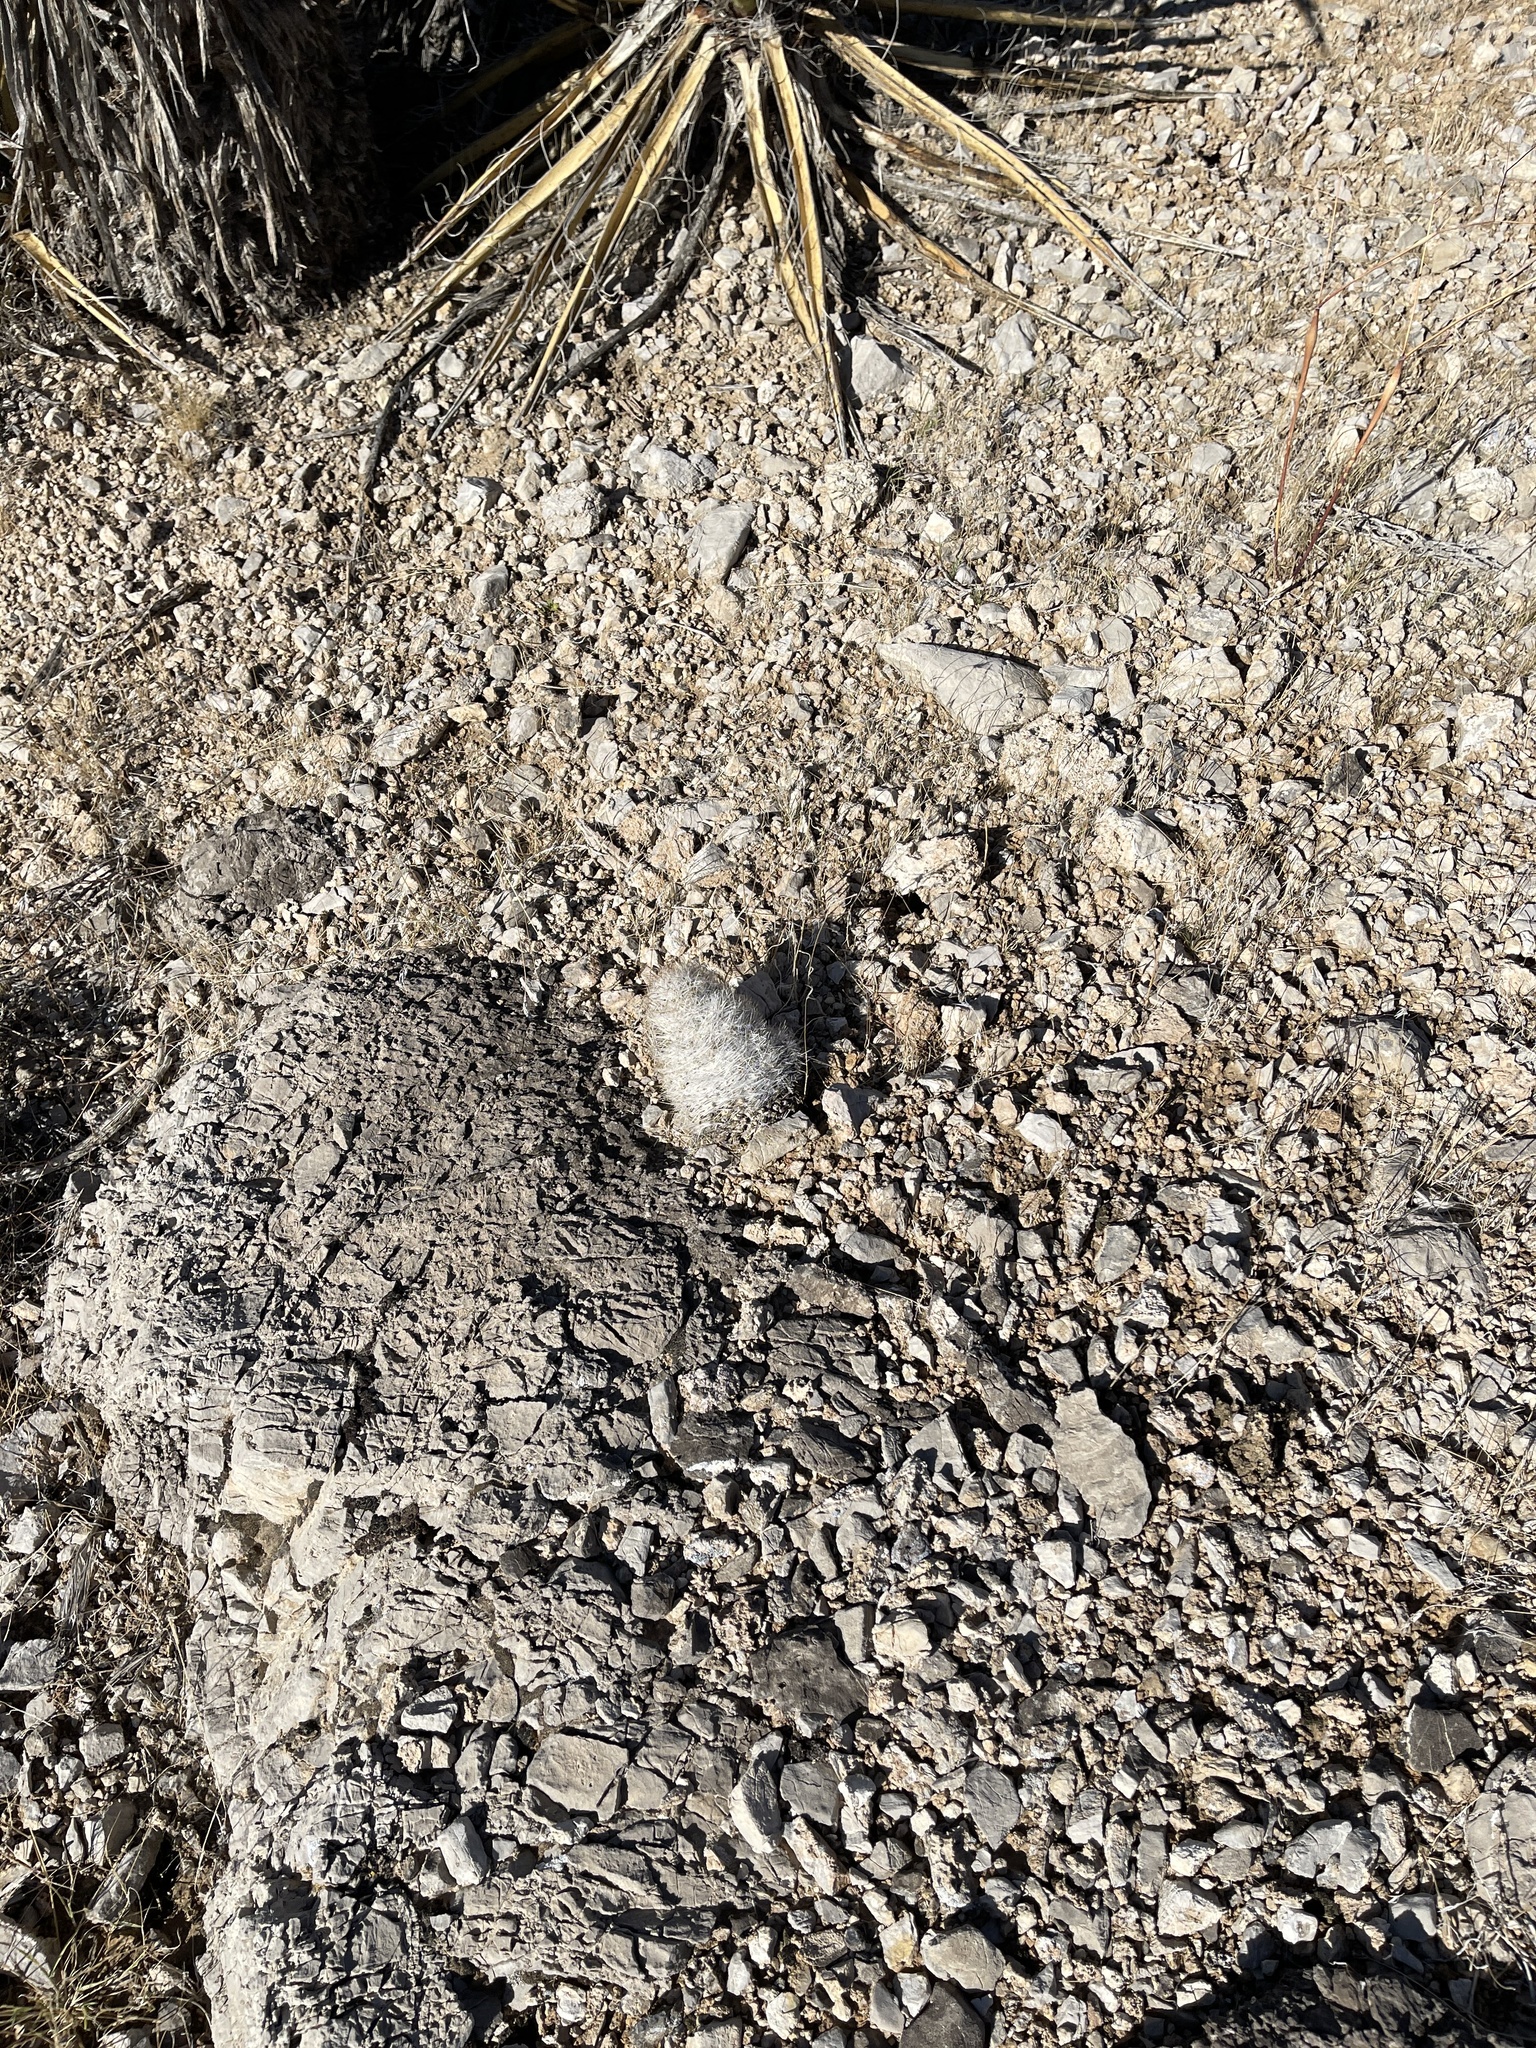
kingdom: Plantae
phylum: Tracheophyta
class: Magnoliopsida
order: Caryophyllales
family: Cactaceae
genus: Pelecyphora
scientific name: Pelecyphora dasyacantha
